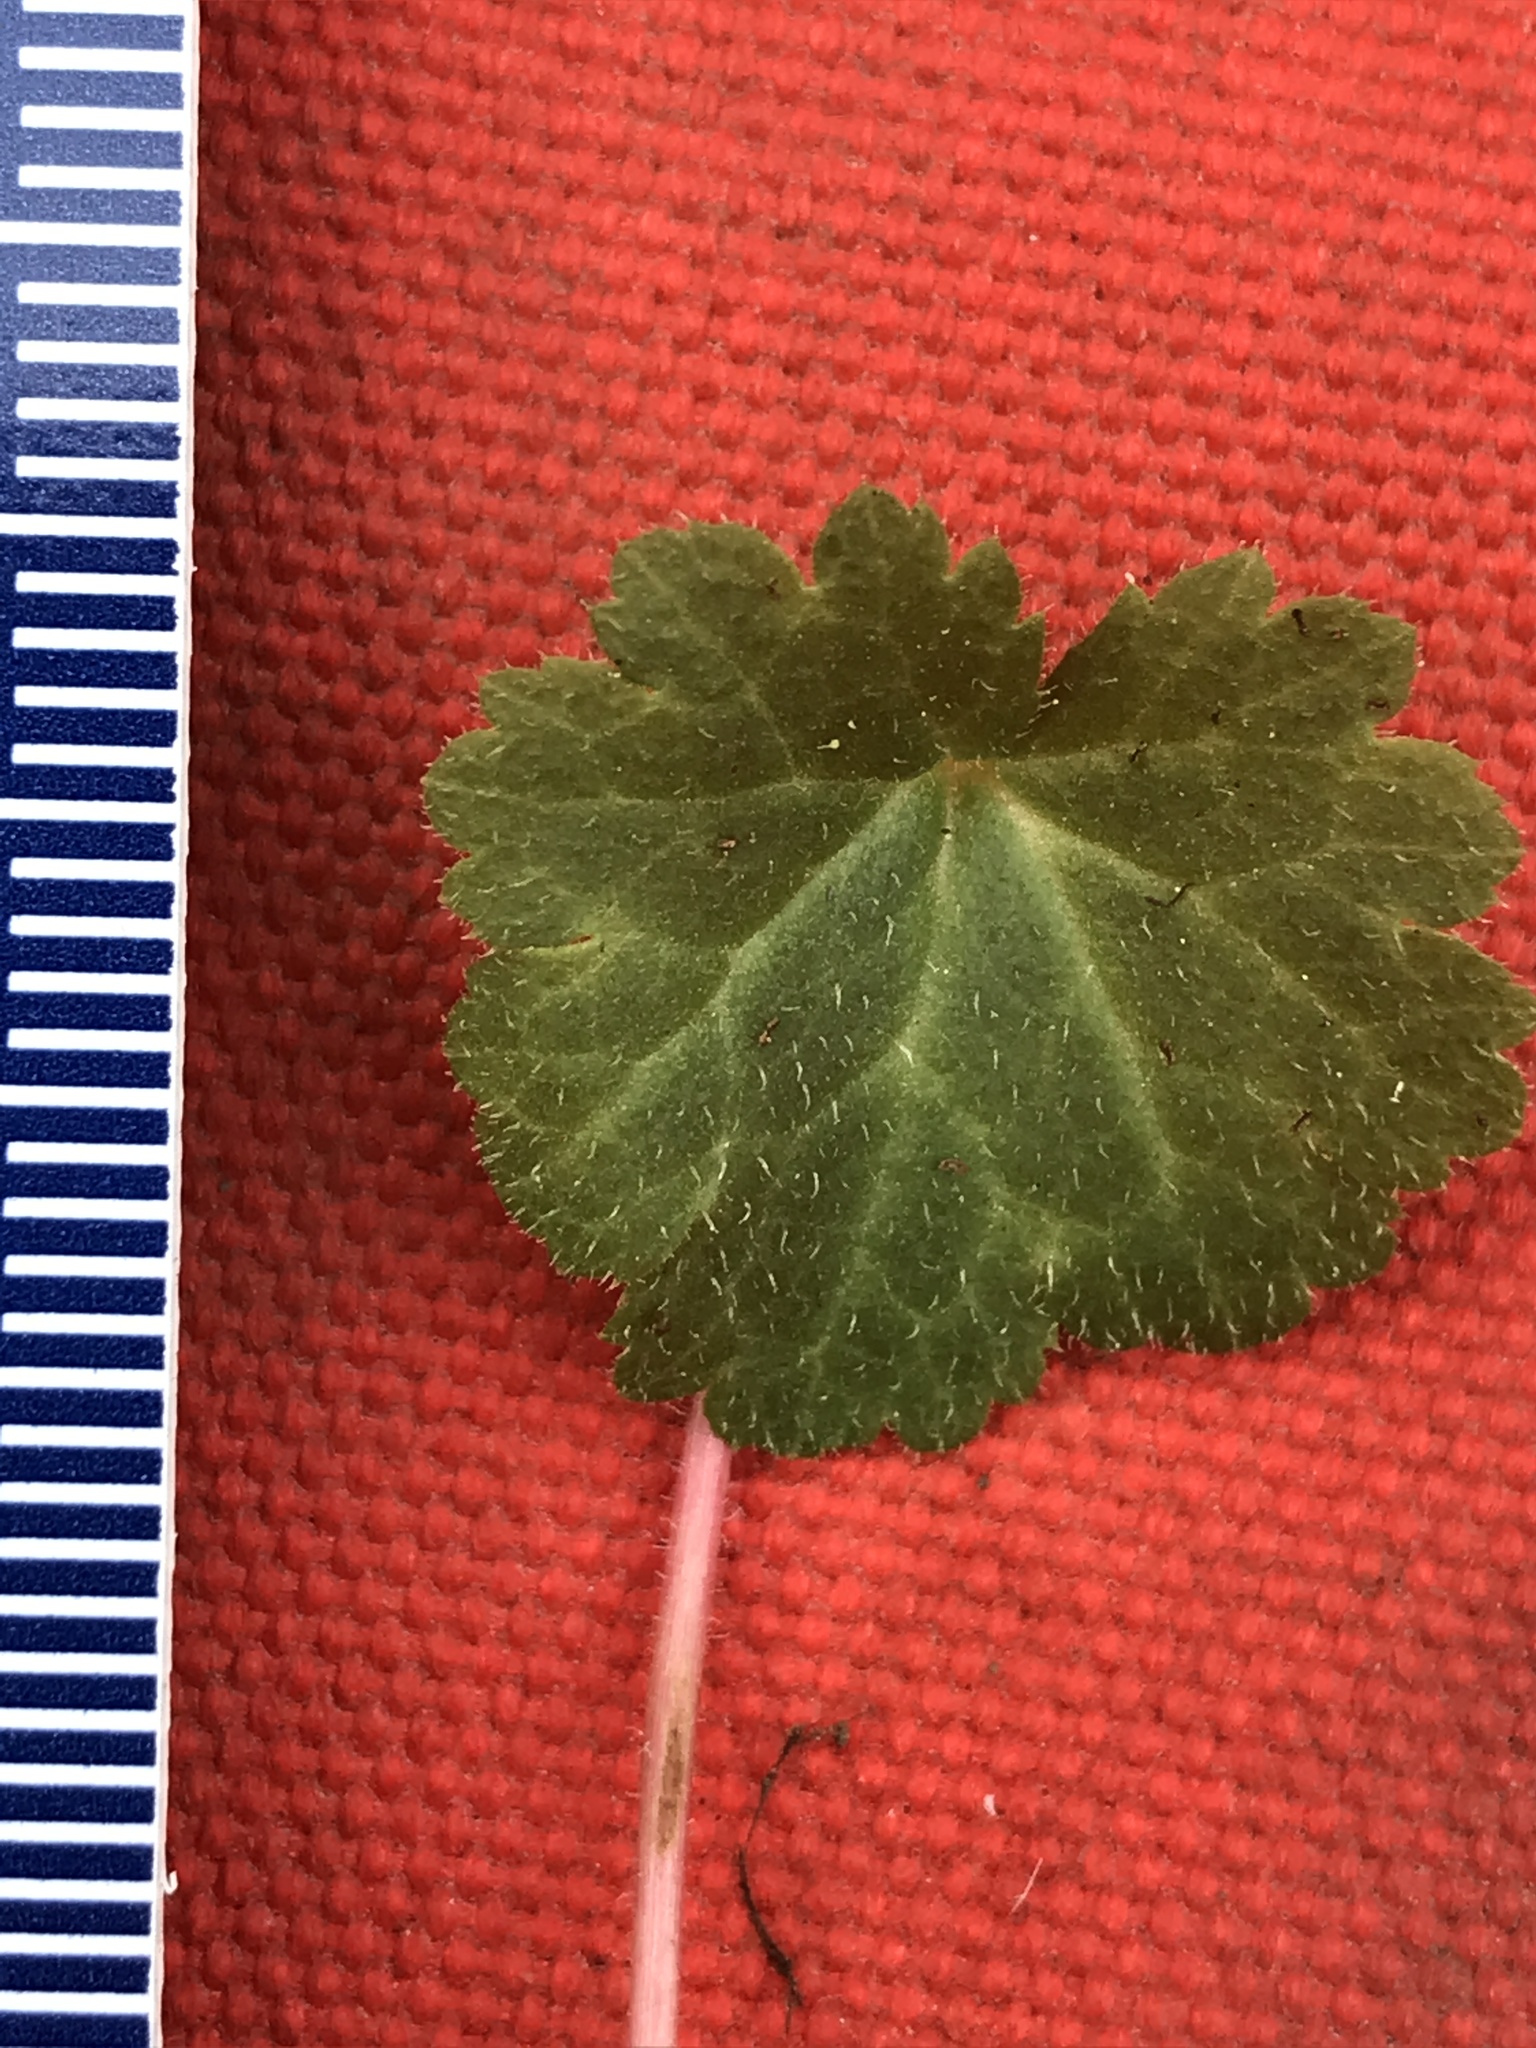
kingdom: Plantae
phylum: Tracheophyta
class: Magnoliopsida
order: Saxifragales
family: Saxifragaceae
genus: Jepsonia
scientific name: Jepsonia parryi
